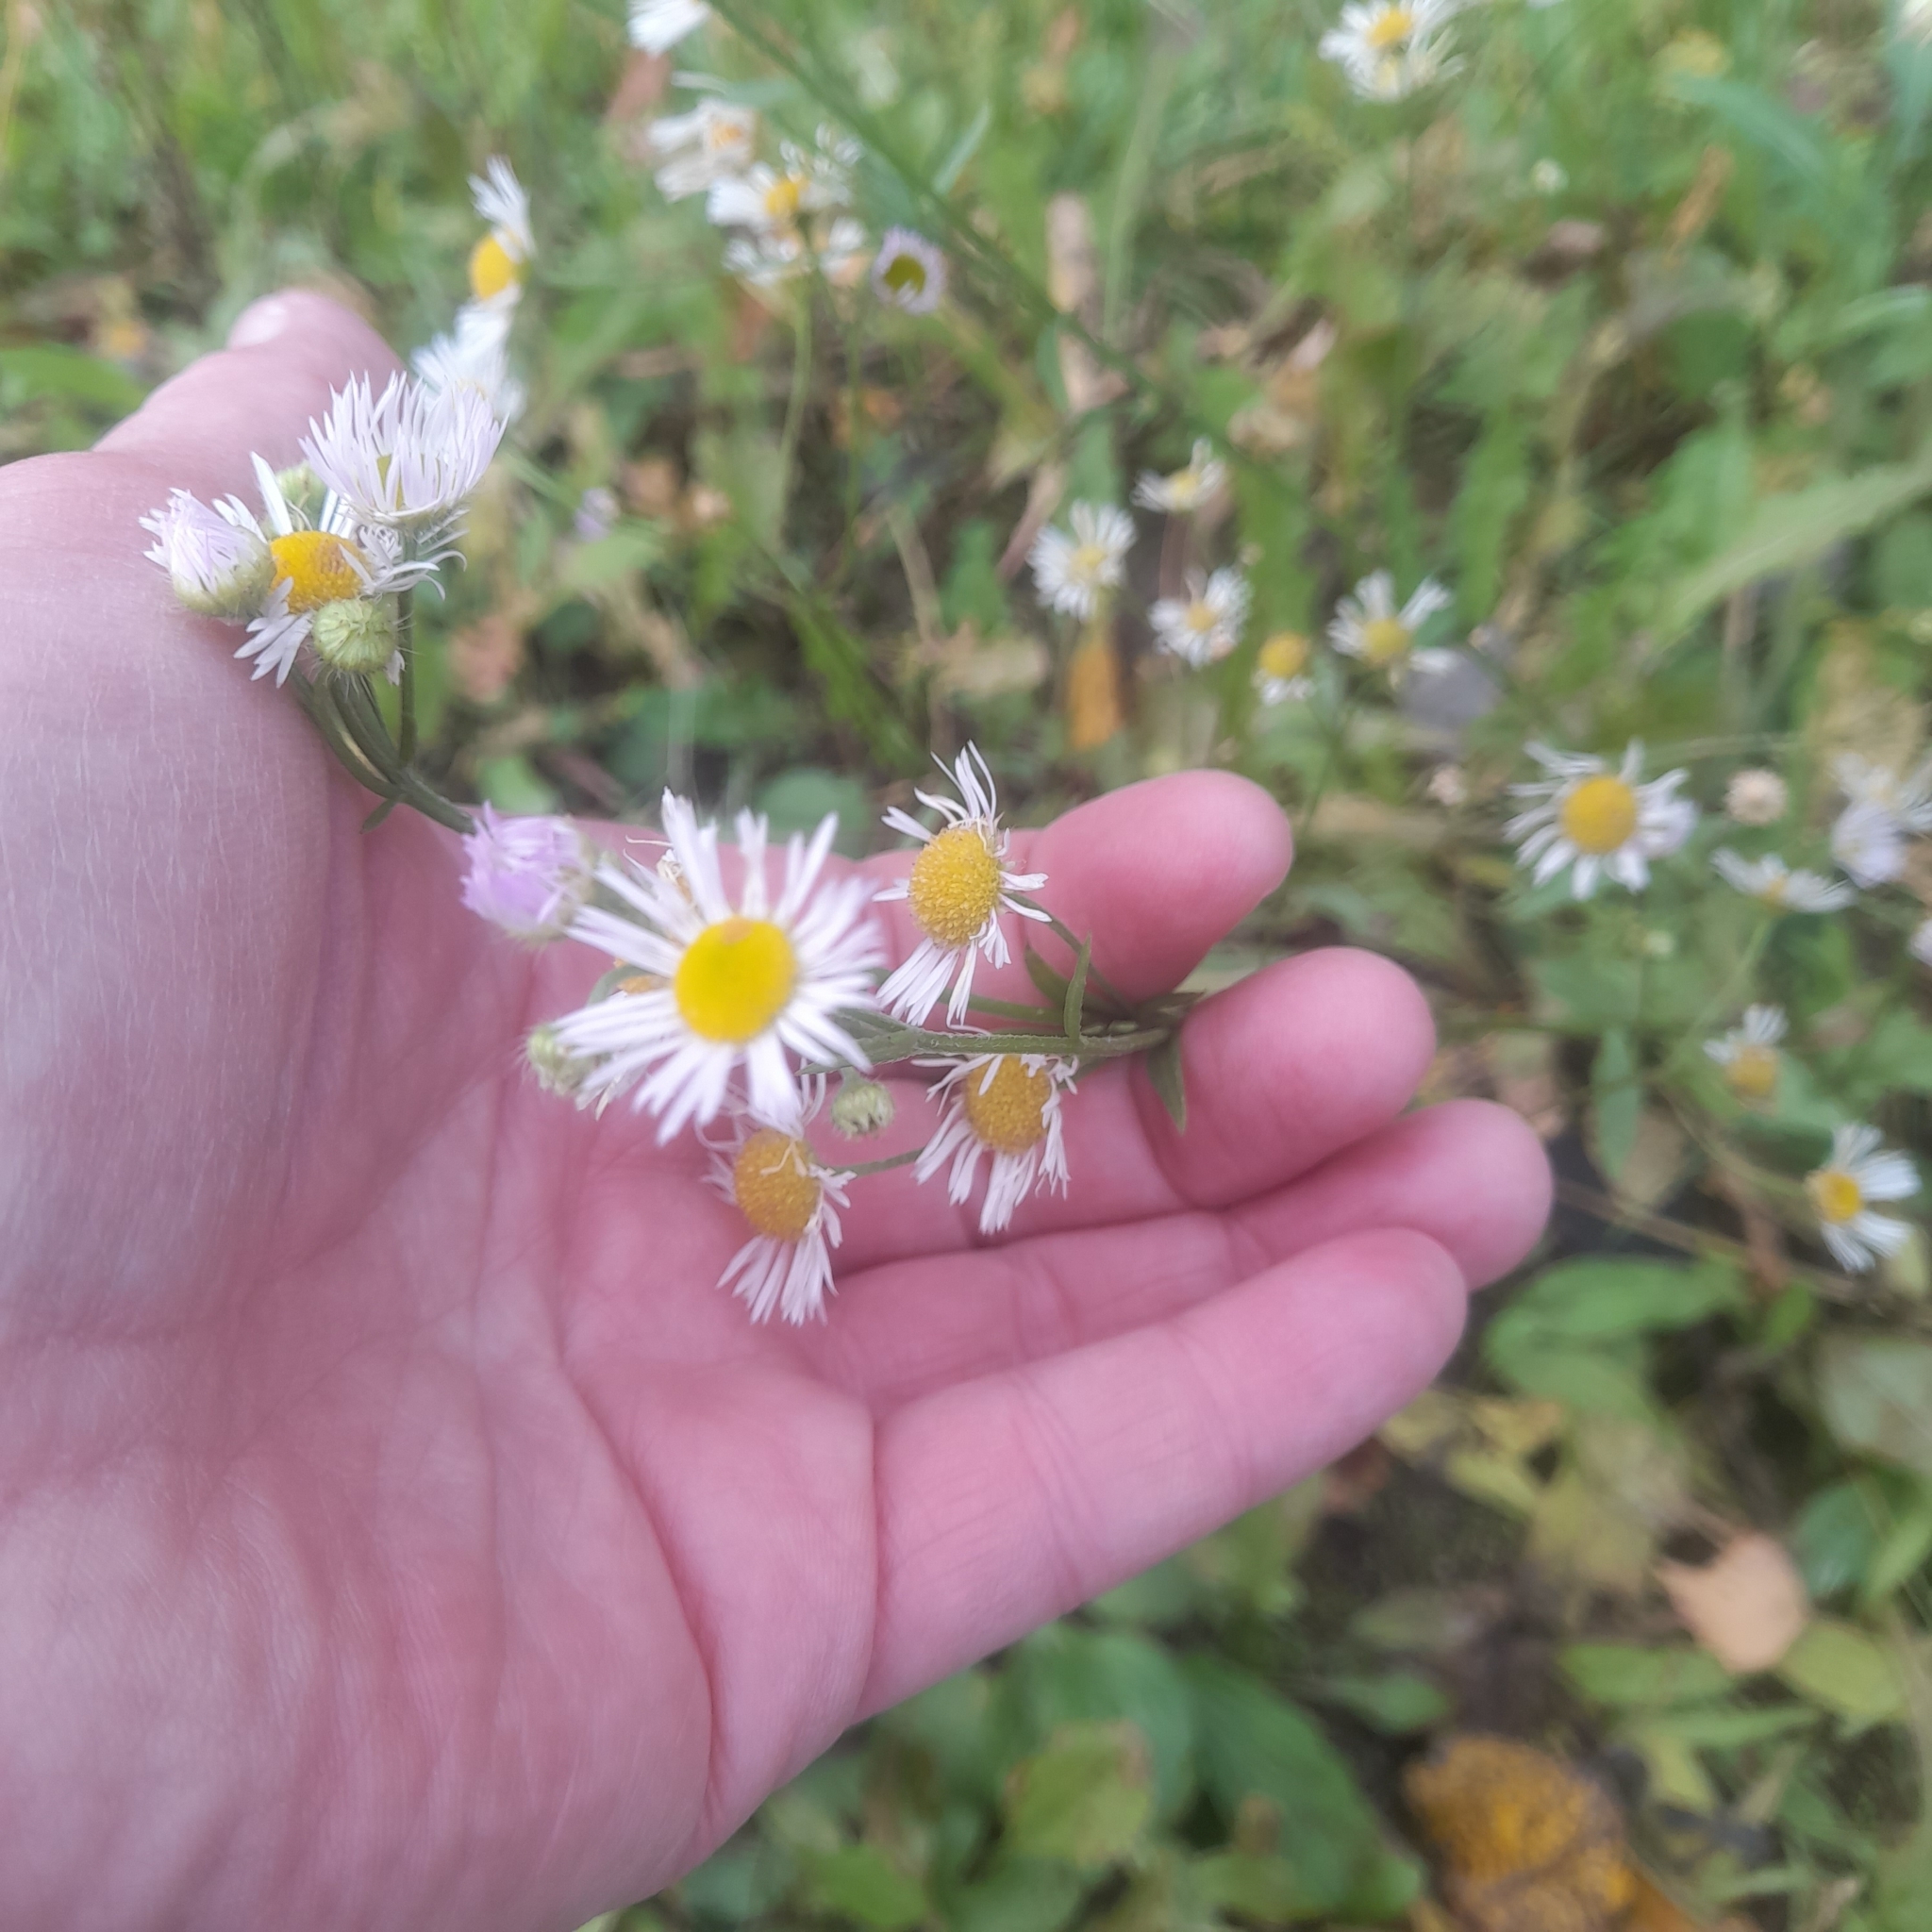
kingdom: Plantae
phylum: Tracheophyta
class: Magnoliopsida
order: Asterales
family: Asteraceae
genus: Erigeron
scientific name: Erigeron annuus
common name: Tall fleabane
